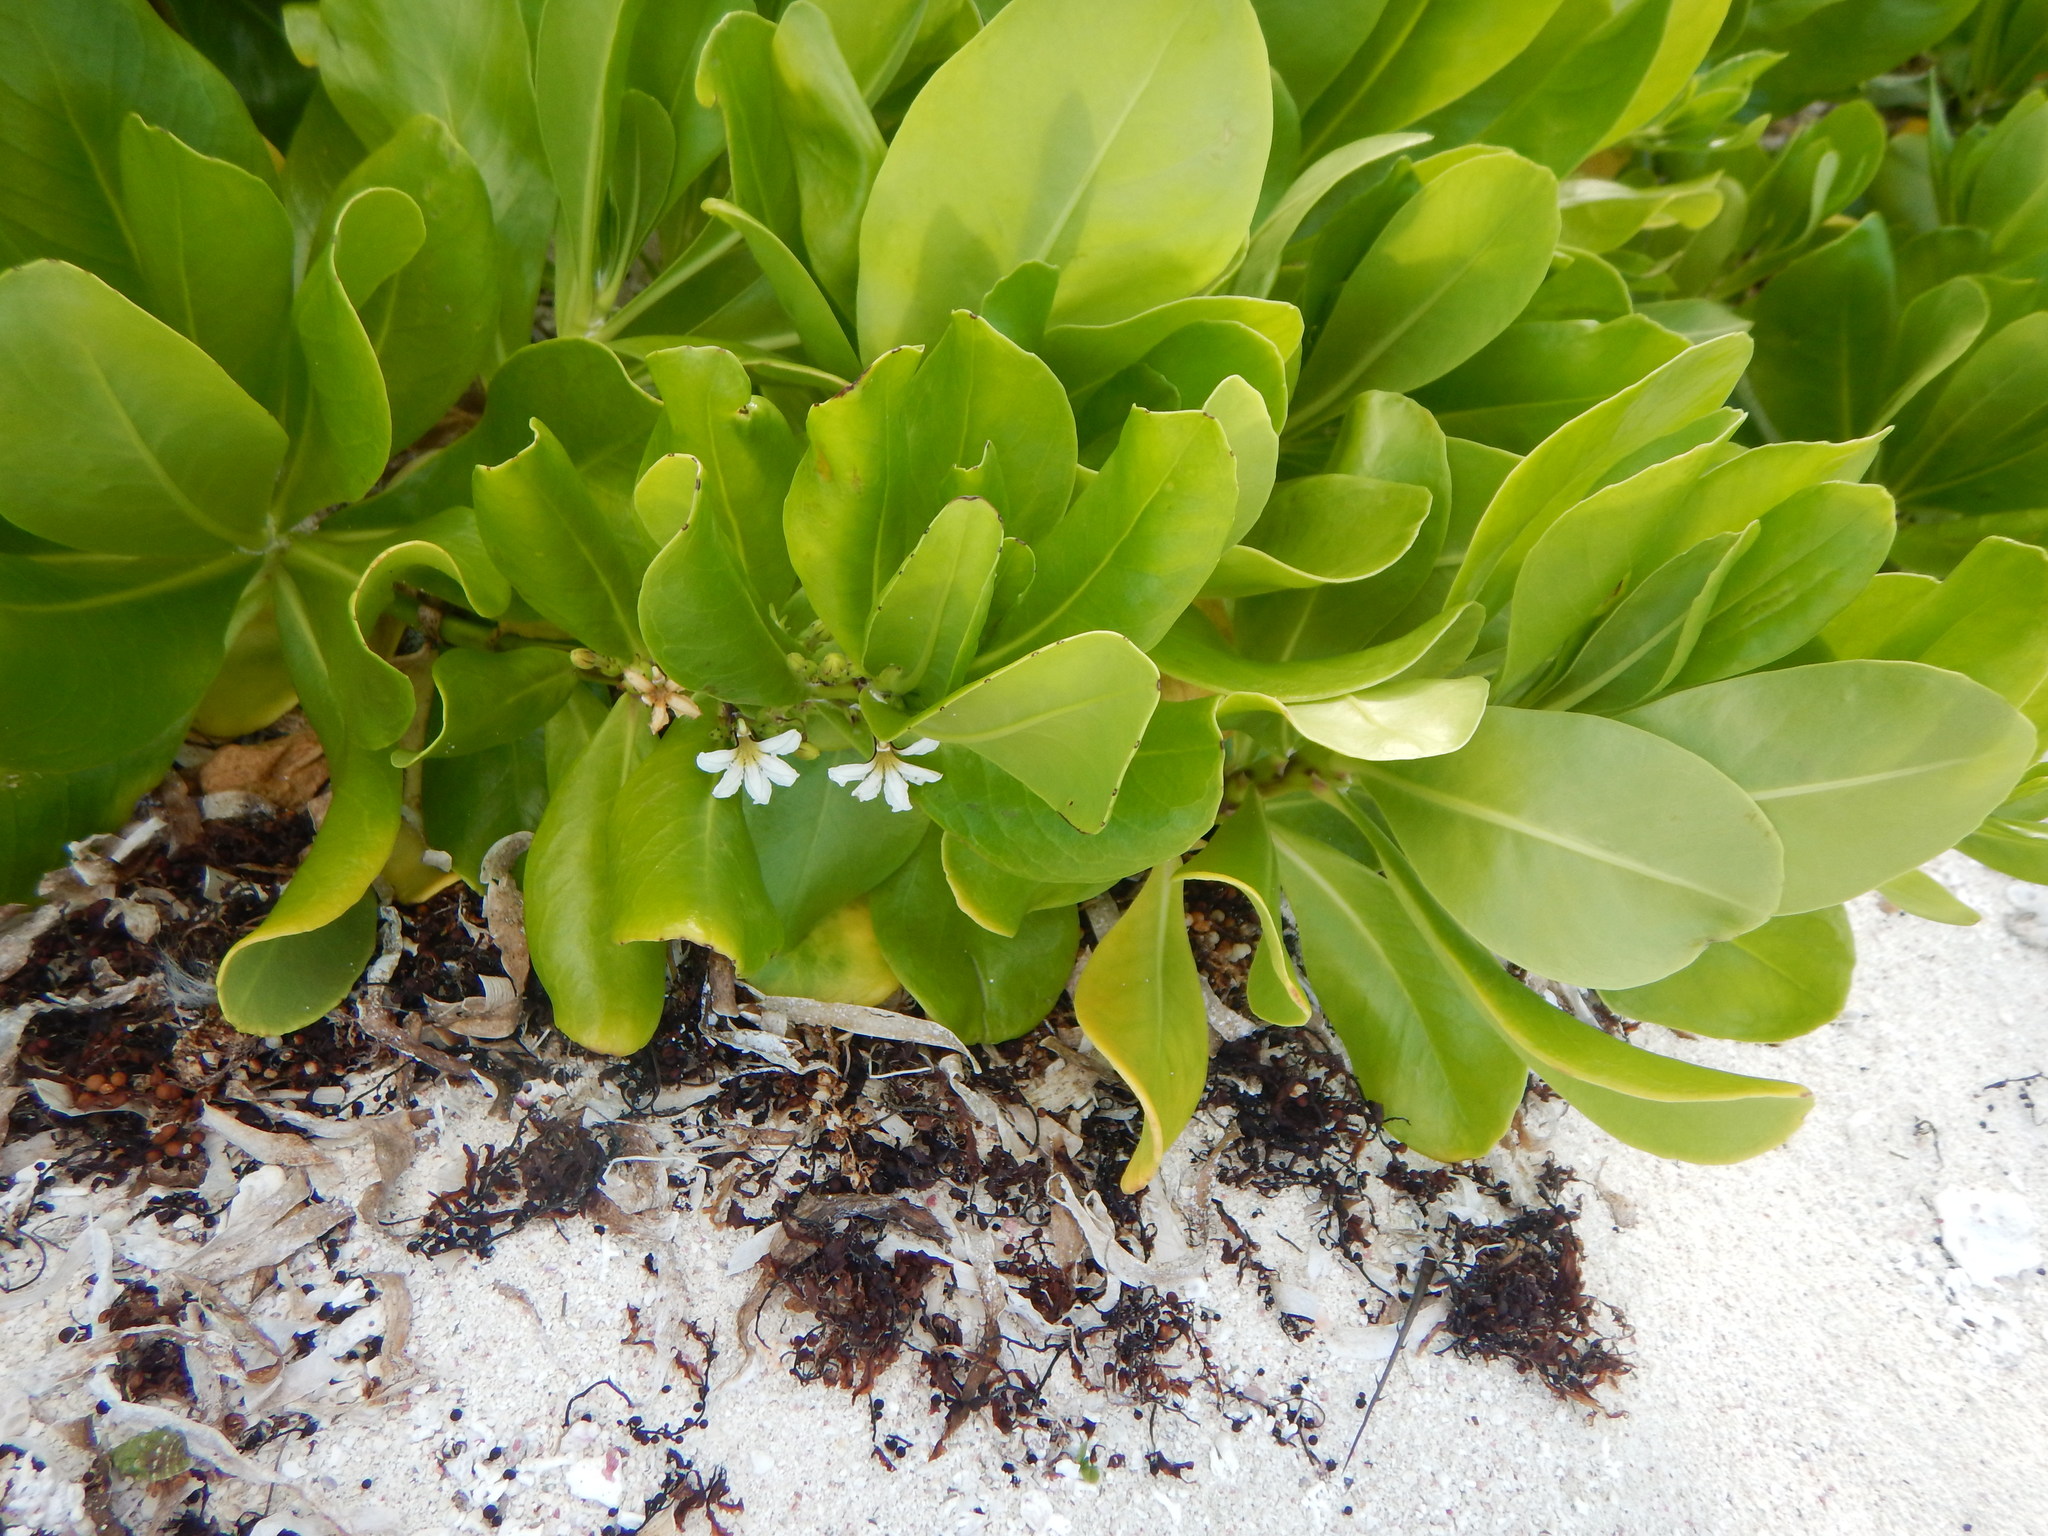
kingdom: Plantae
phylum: Tracheophyta
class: Magnoliopsida
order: Asterales
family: Goodeniaceae
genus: Scaevola
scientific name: Scaevola taccada
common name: Sea lettucetree
